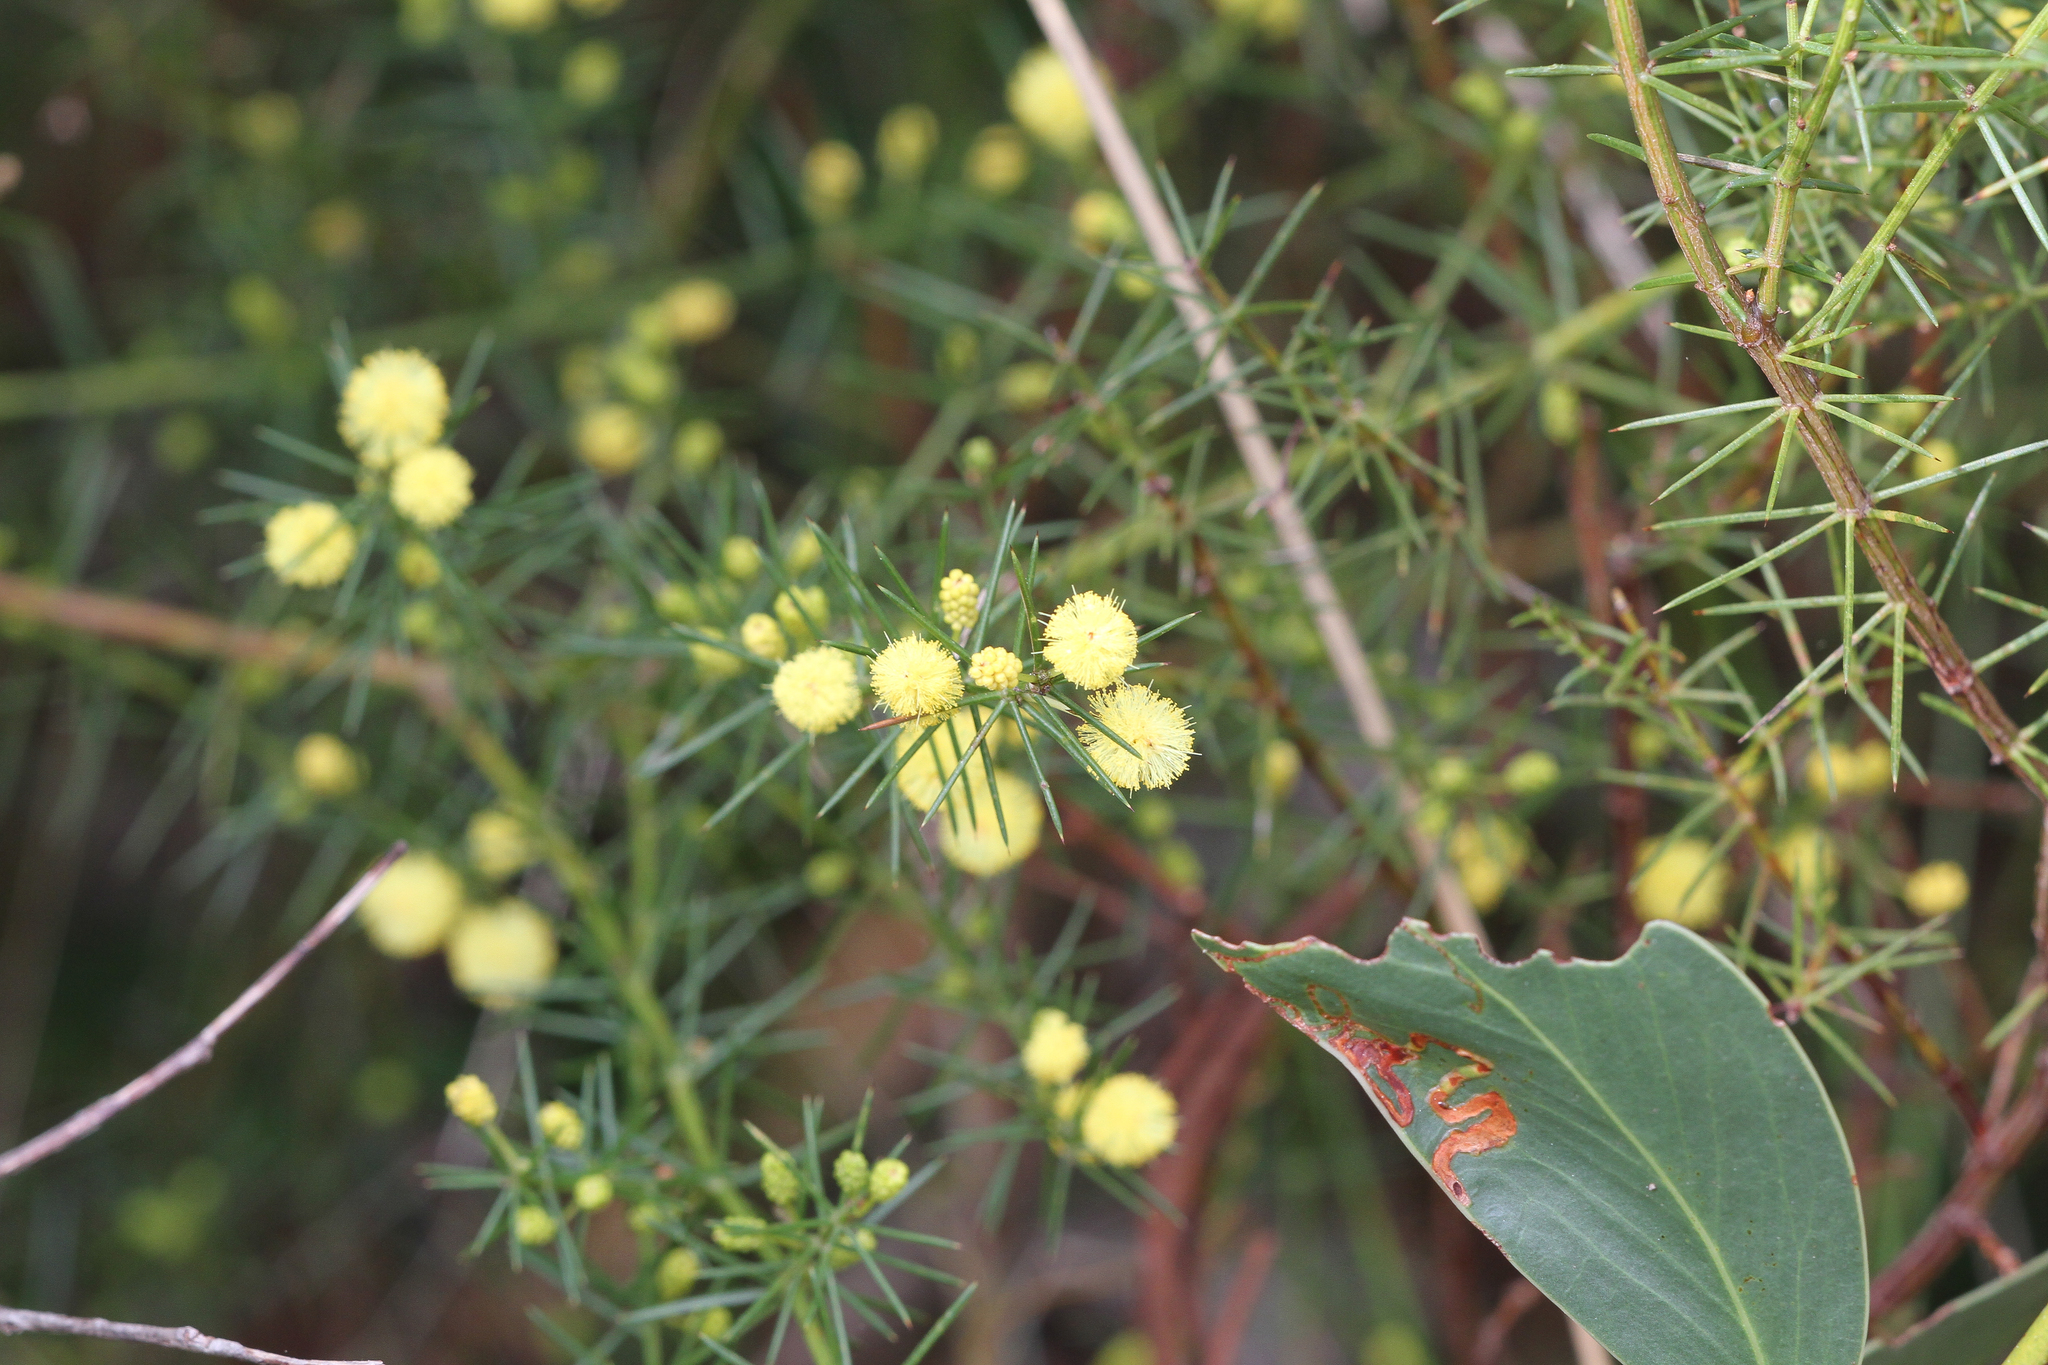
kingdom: Plantae
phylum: Tracheophyta
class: Magnoliopsida
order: Fabales
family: Fabaceae
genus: Acacia
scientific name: Acacia verticillata
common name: Prickly moses
